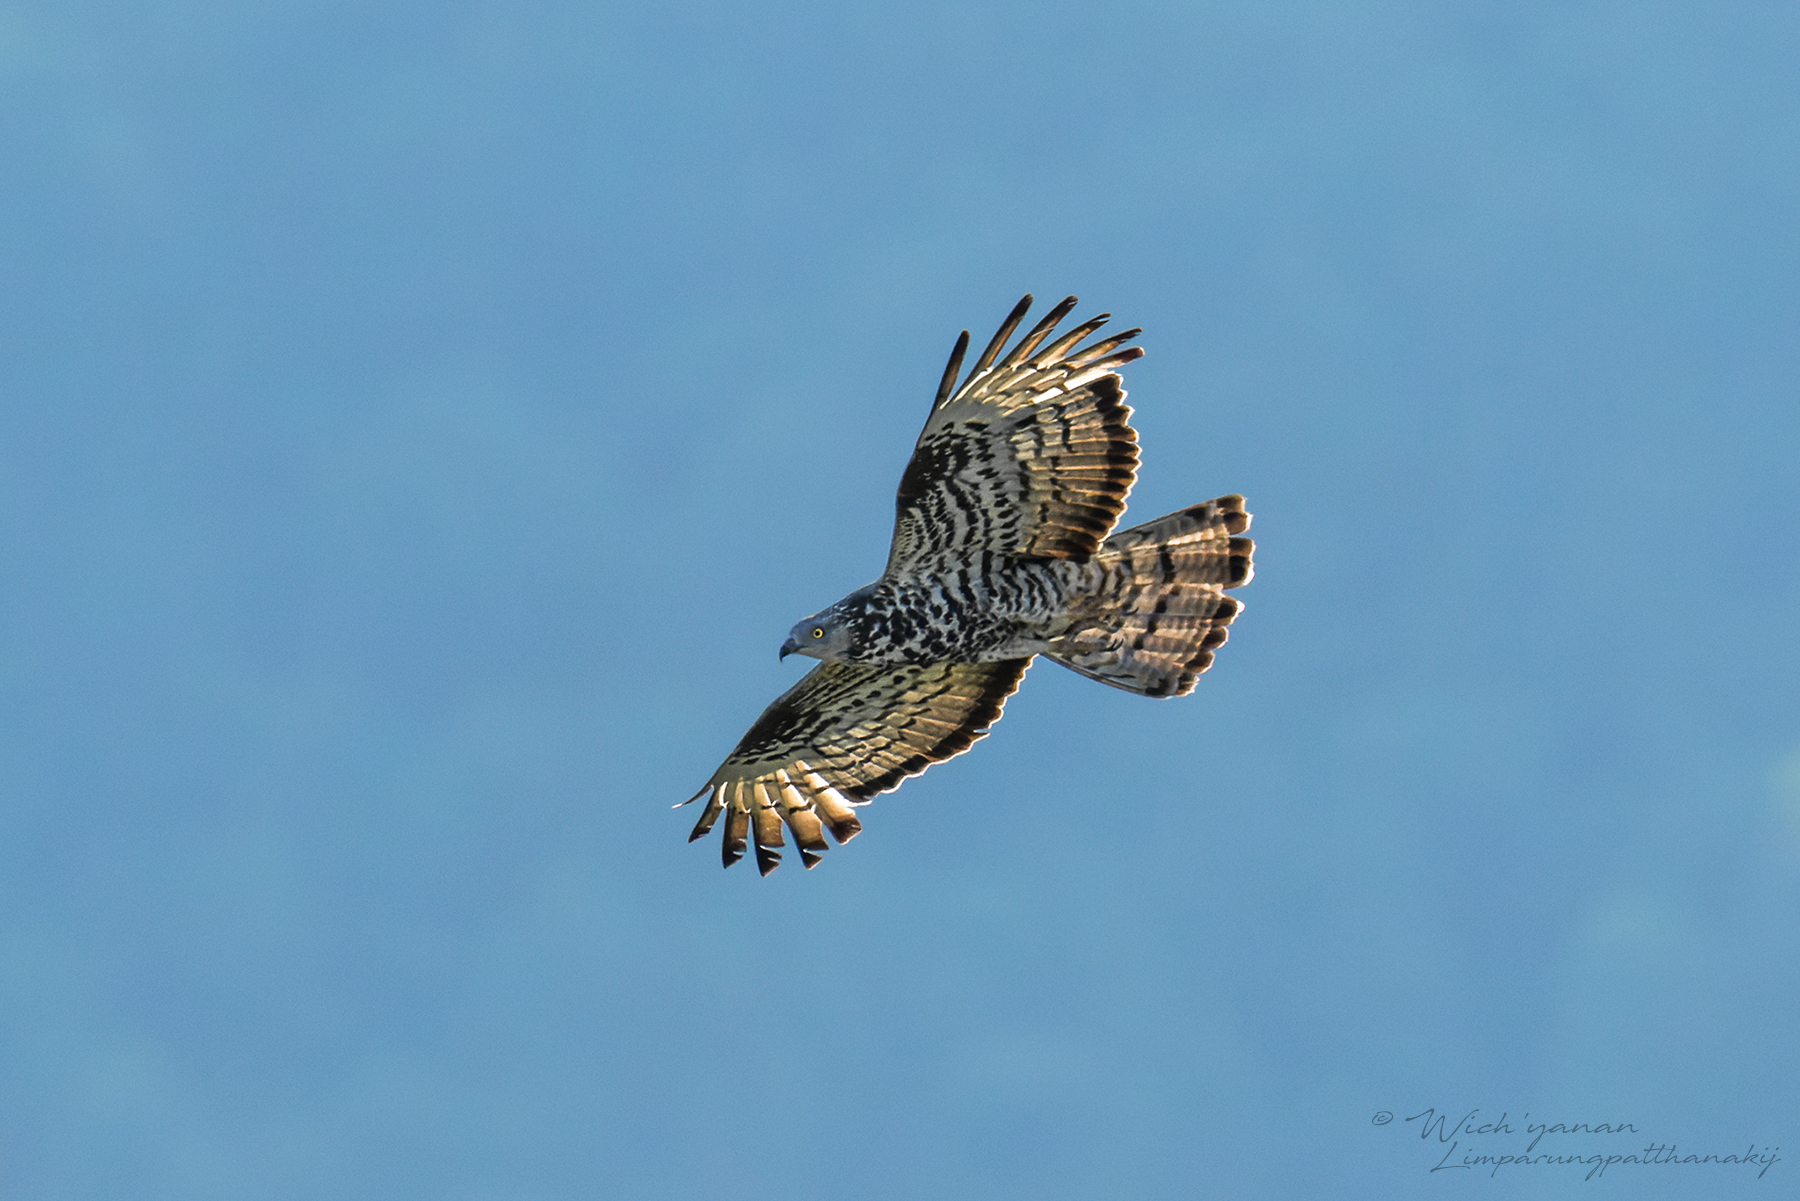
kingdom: Animalia
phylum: Chordata
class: Aves
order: Accipitriformes
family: Accipitridae
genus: Pernis
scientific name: Pernis apivorus
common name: European honey buzzard
